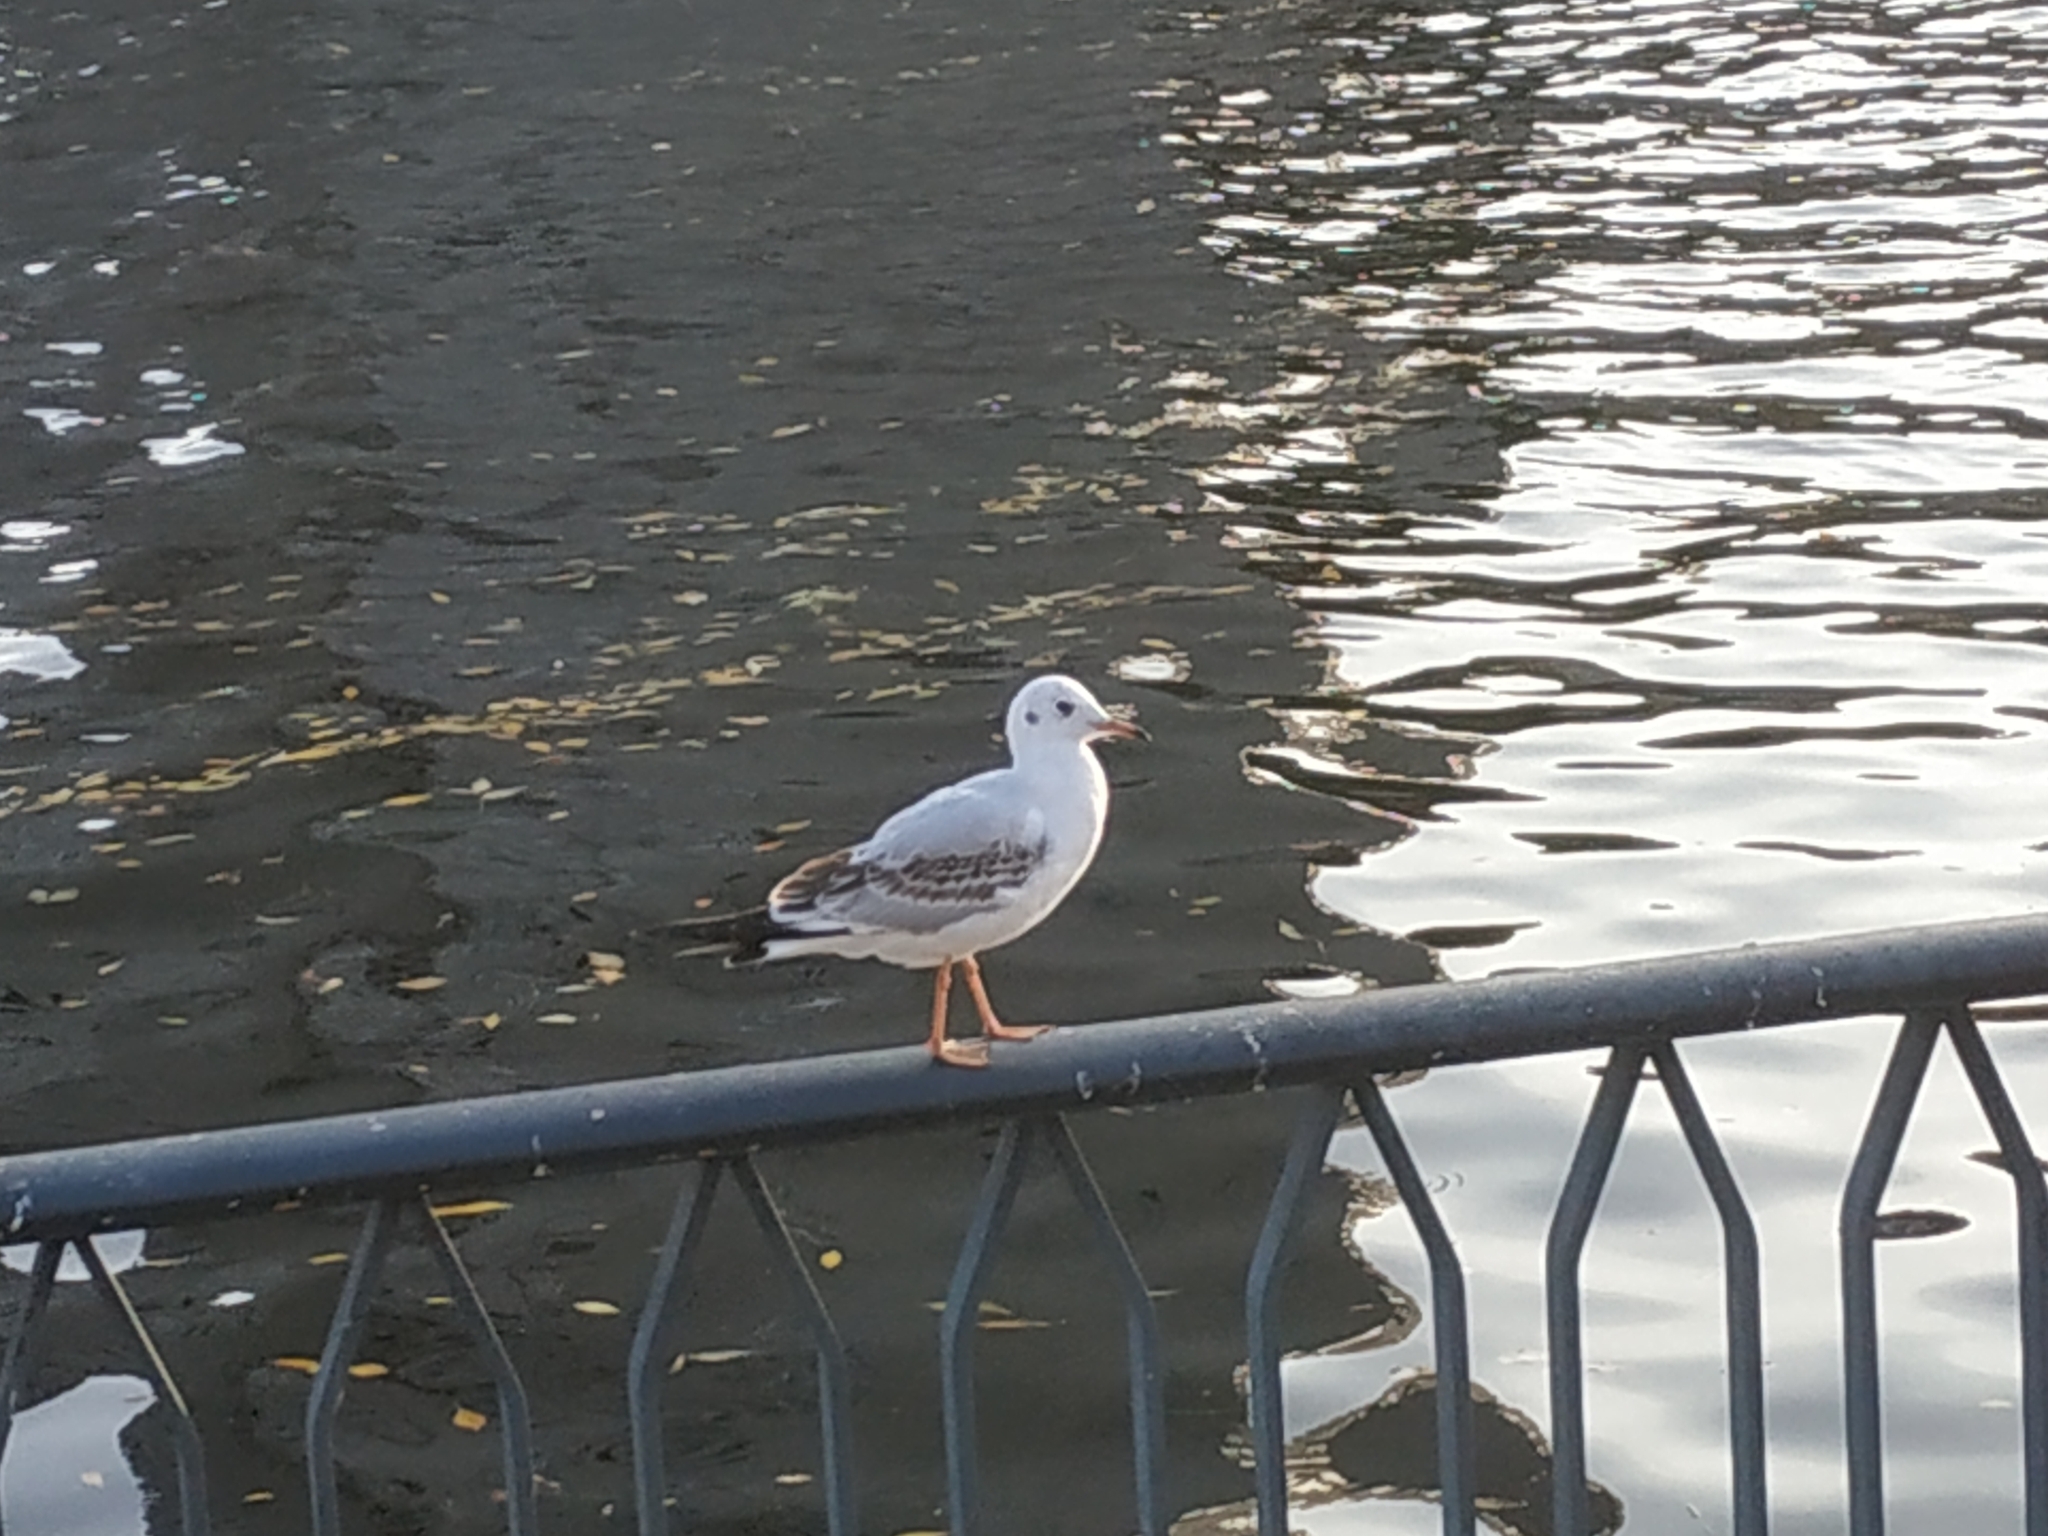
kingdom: Animalia
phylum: Chordata
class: Aves
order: Charadriiformes
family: Laridae
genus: Chroicocephalus
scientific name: Chroicocephalus ridibundus
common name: Black-headed gull
